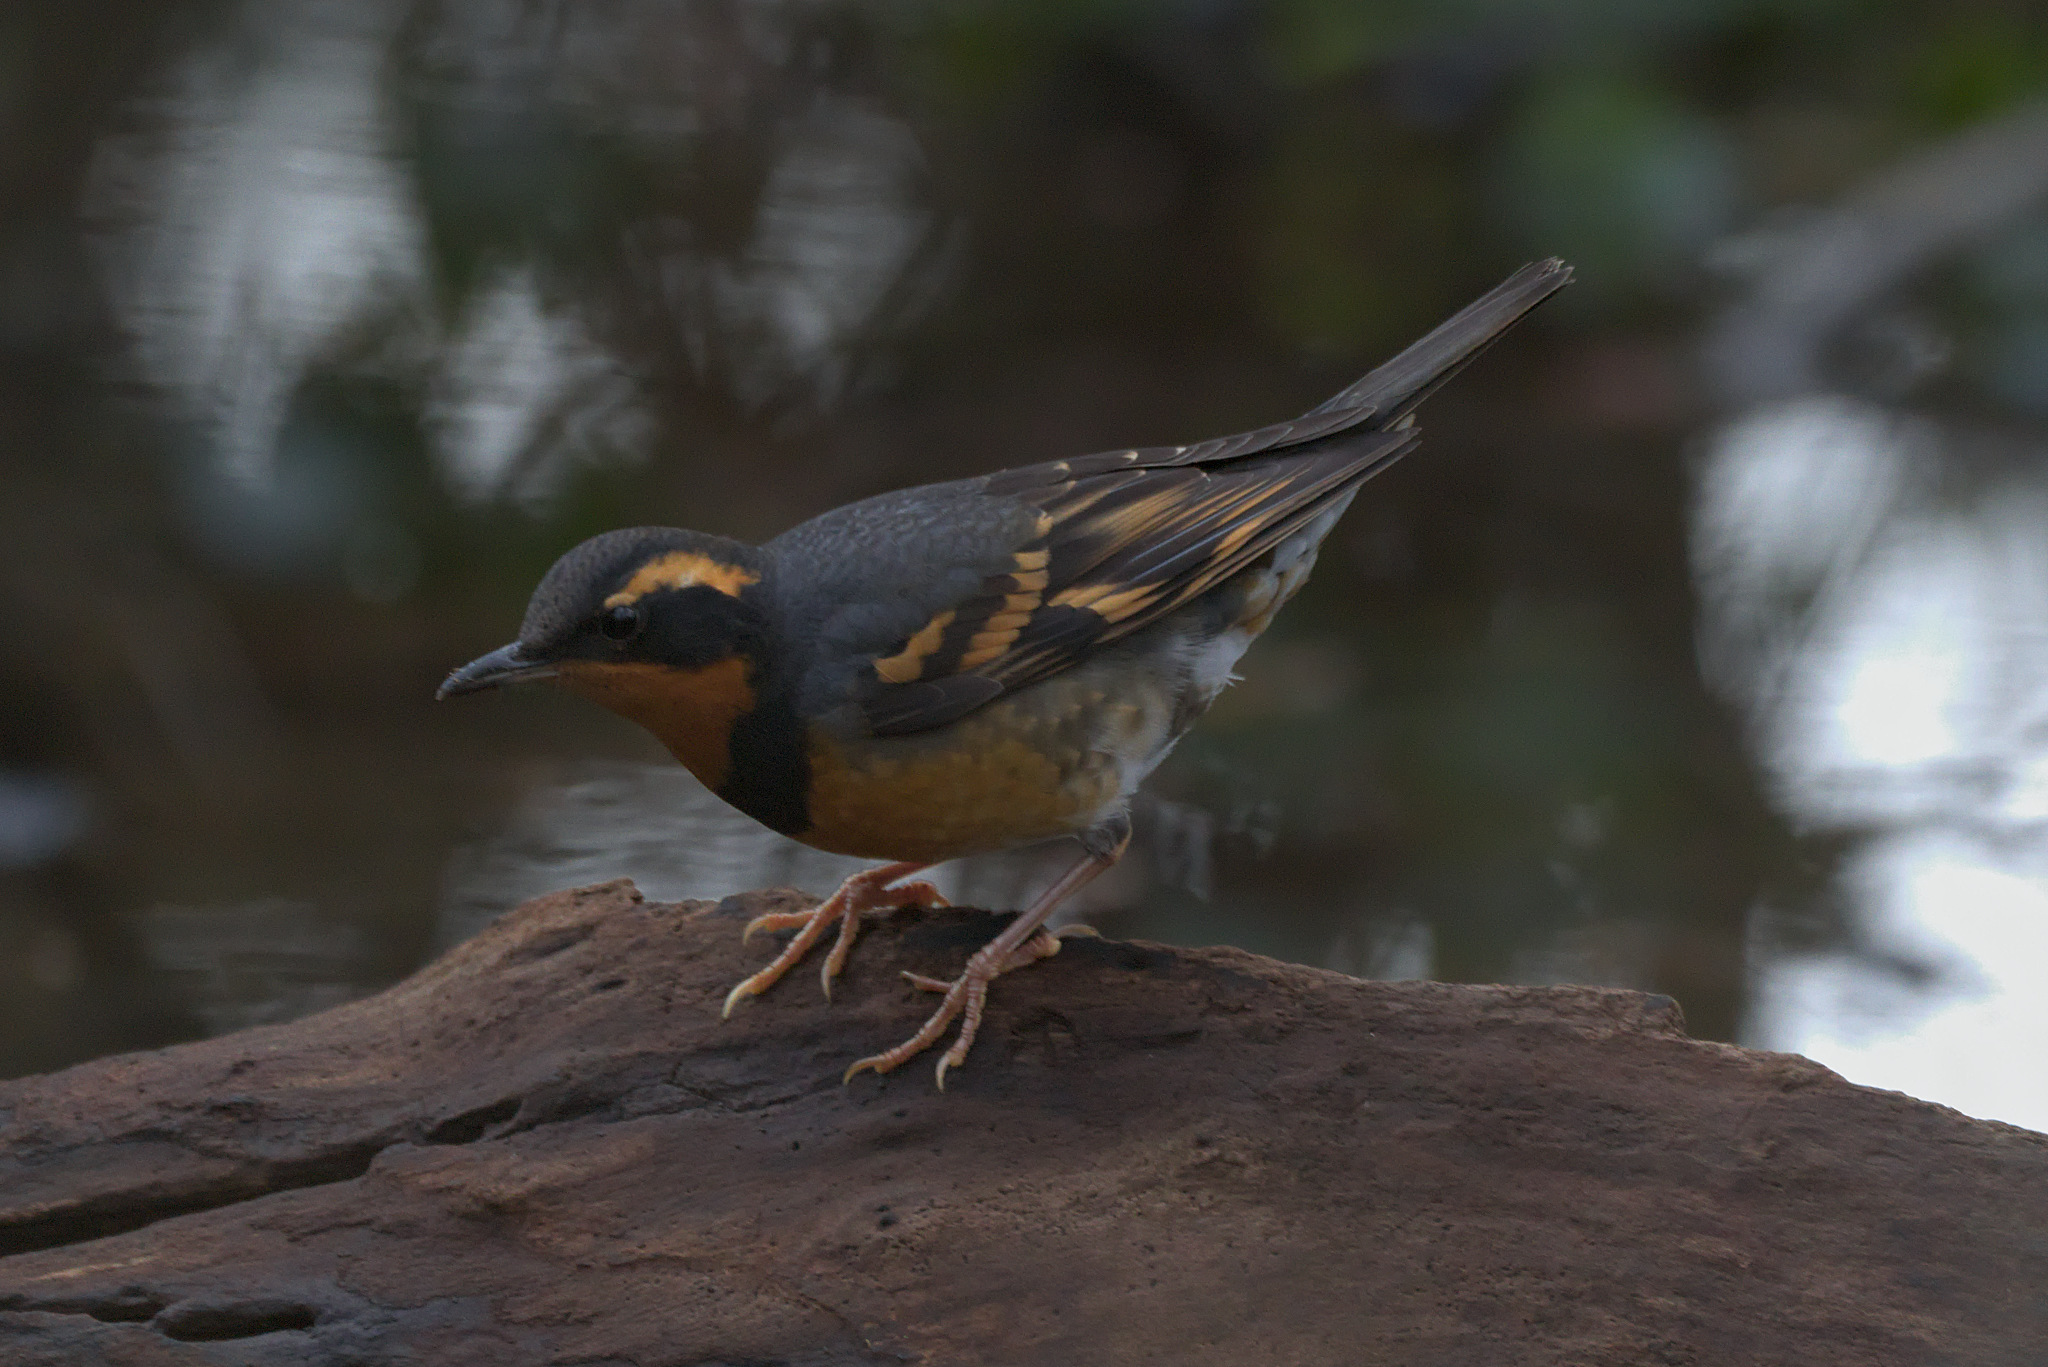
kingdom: Animalia
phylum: Chordata
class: Aves
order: Passeriformes
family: Turdidae
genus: Ixoreus
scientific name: Ixoreus naevius
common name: Varied thrush
